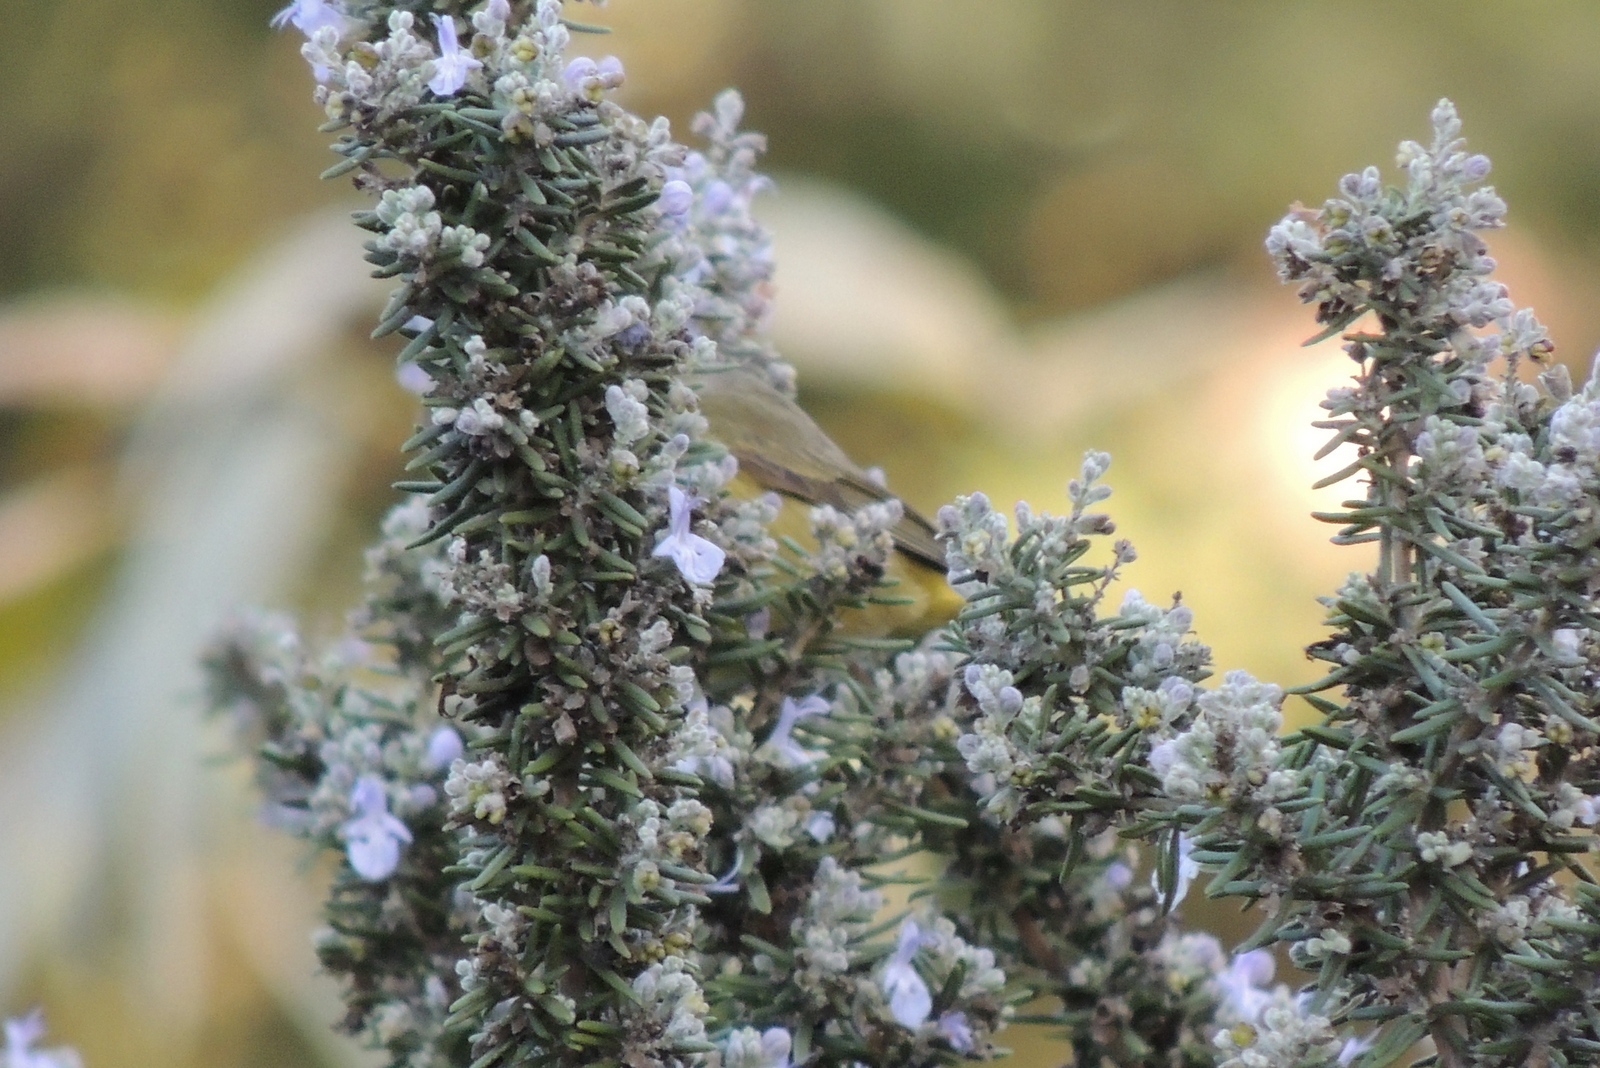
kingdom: Animalia
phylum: Chordata
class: Aves
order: Passeriformes
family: Parulidae
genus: Leiothlypis
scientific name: Leiothlypis celata
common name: Orange-crowned warbler
